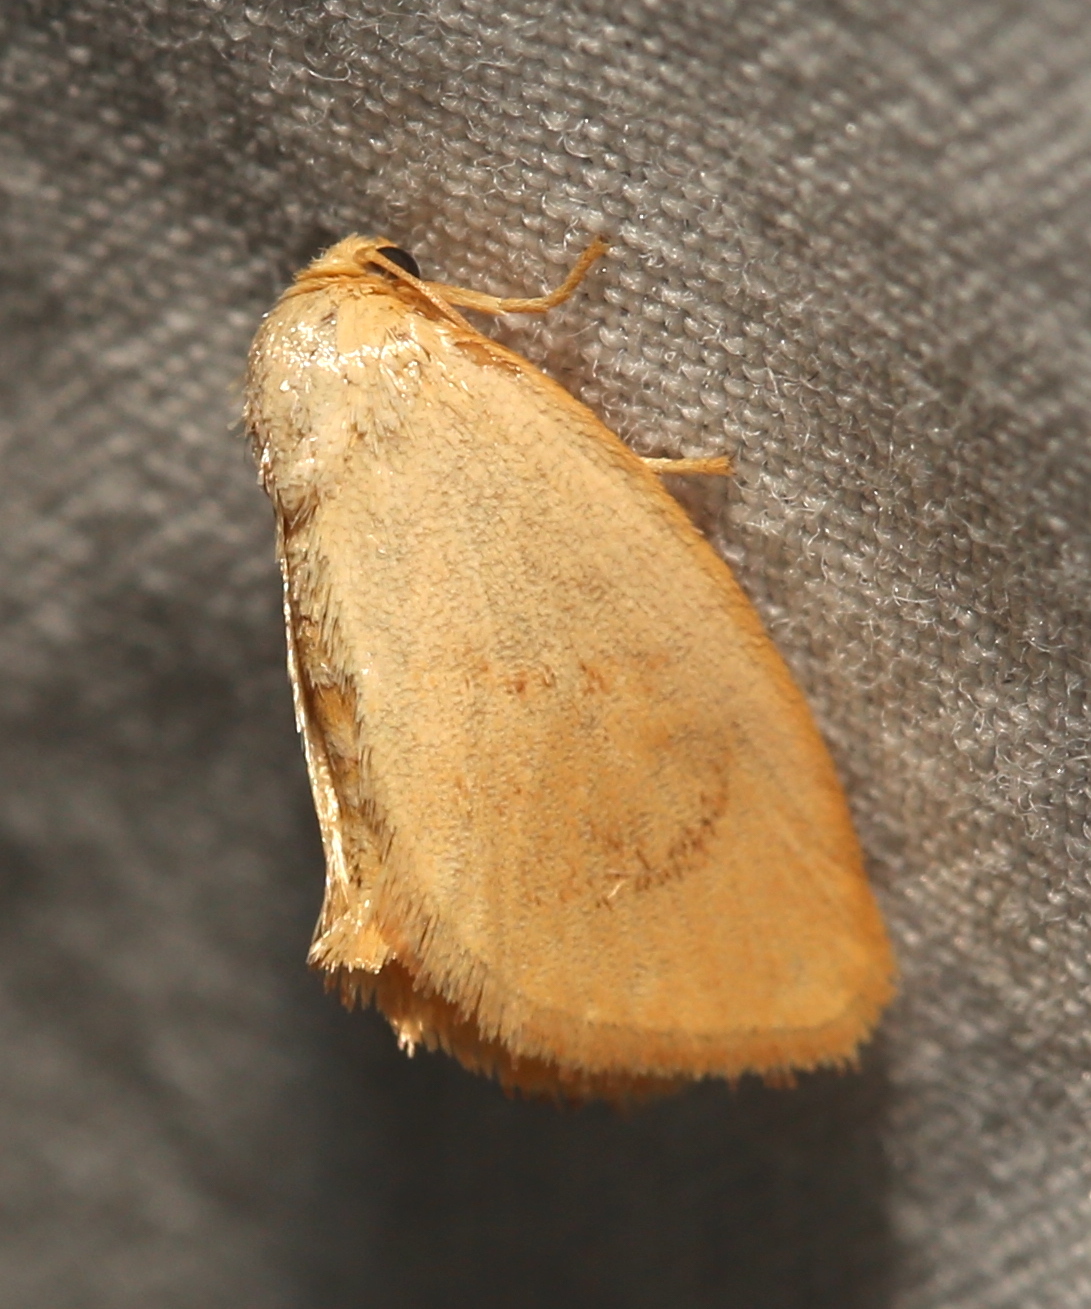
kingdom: Animalia
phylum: Arthropoda
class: Insecta
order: Lepidoptera
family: Limacodidae
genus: Tortricidia
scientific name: Tortricidia pallida
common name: Red-crossed button slug moth
